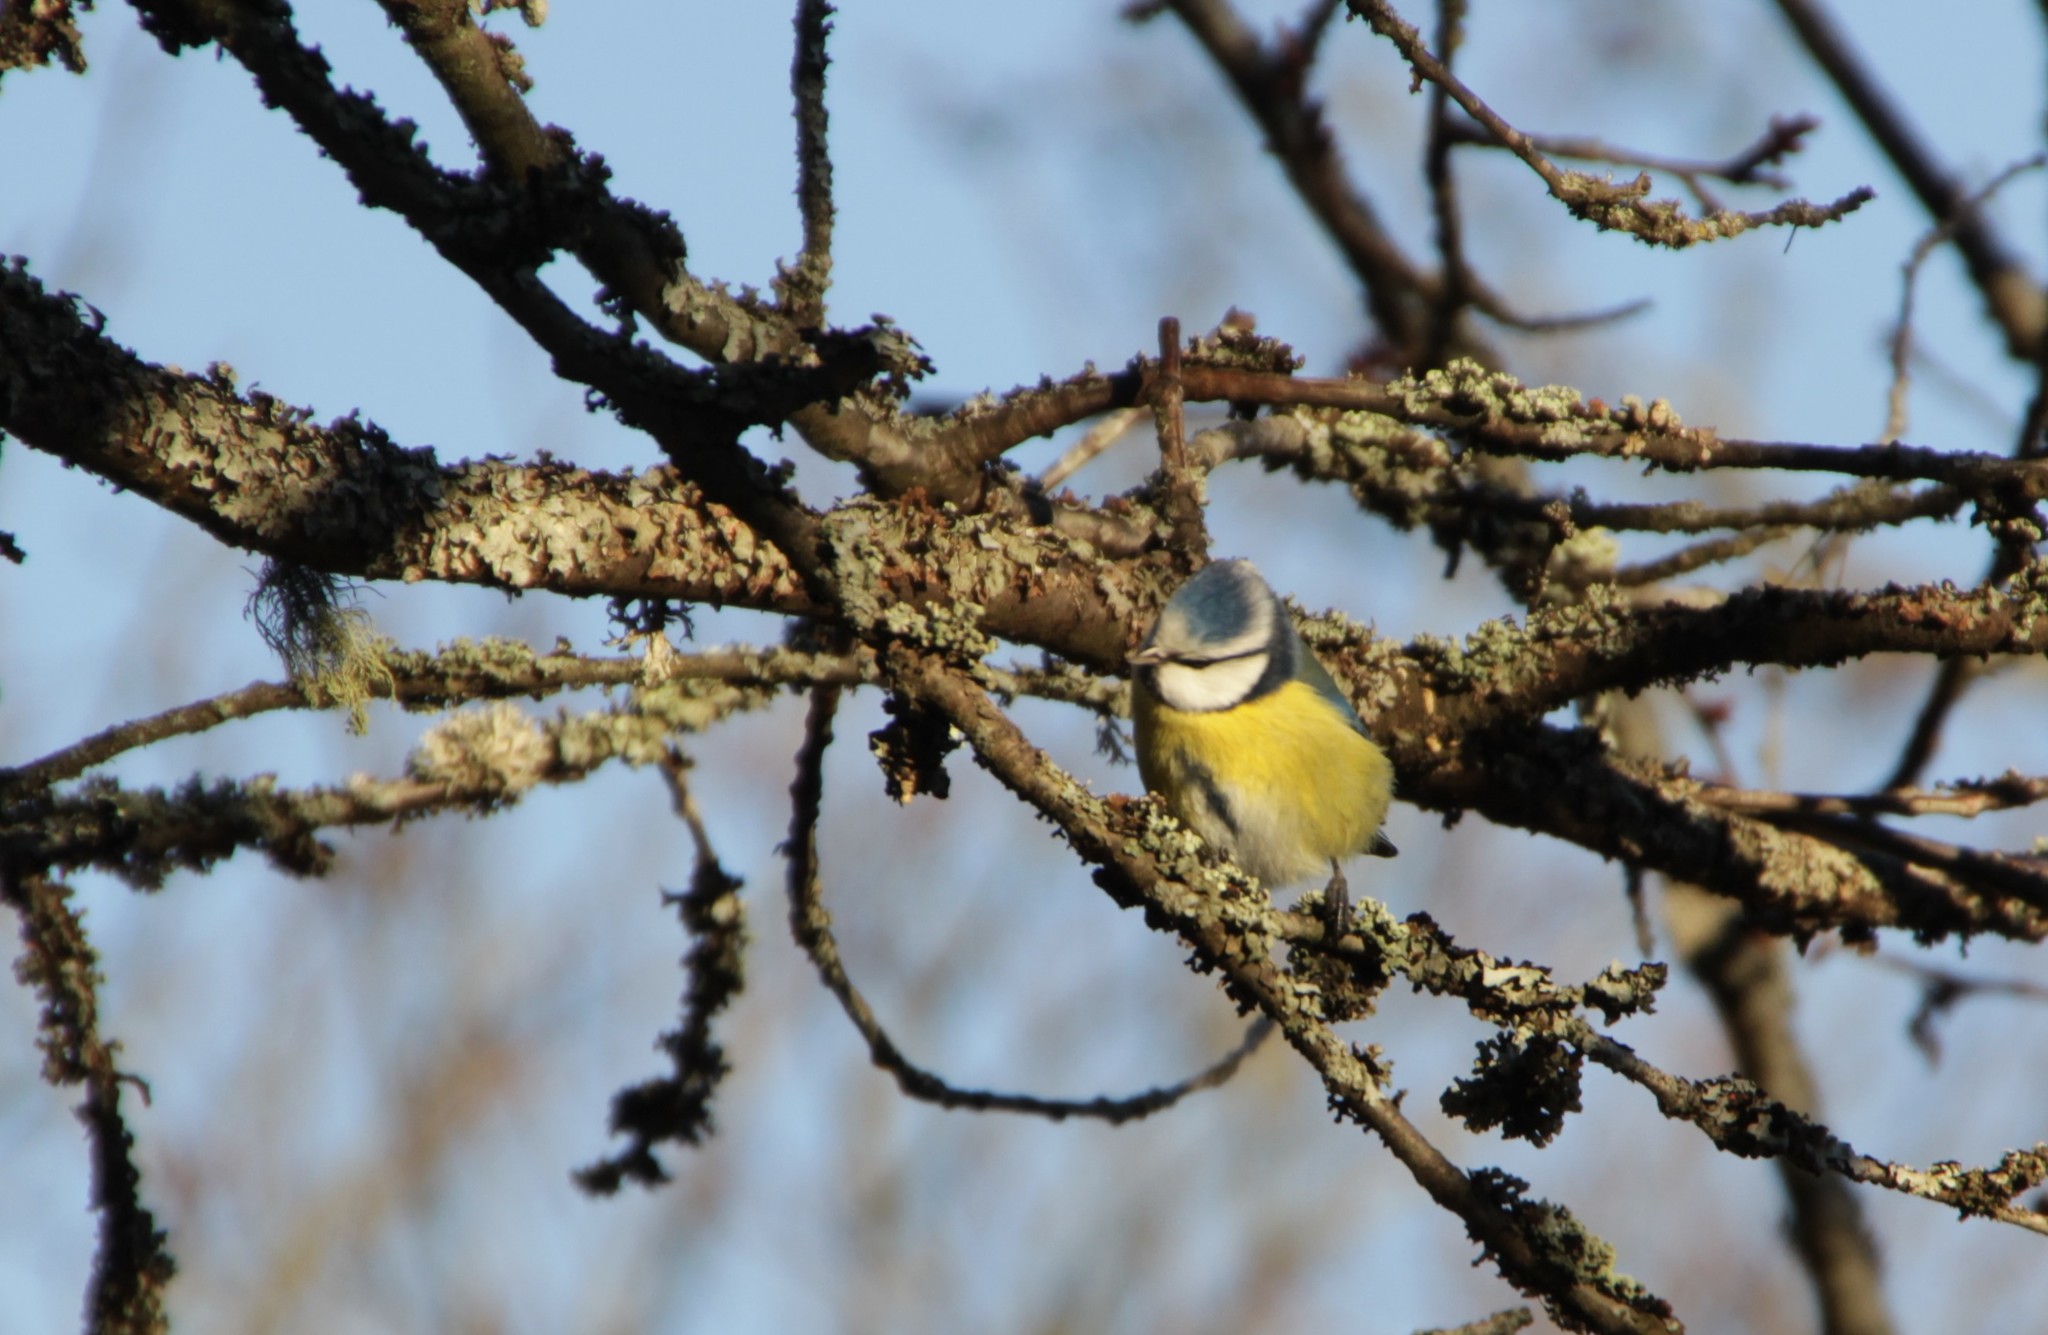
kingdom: Animalia
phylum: Chordata
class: Aves
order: Passeriformes
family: Paridae
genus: Cyanistes
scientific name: Cyanistes caeruleus
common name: Eurasian blue tit
